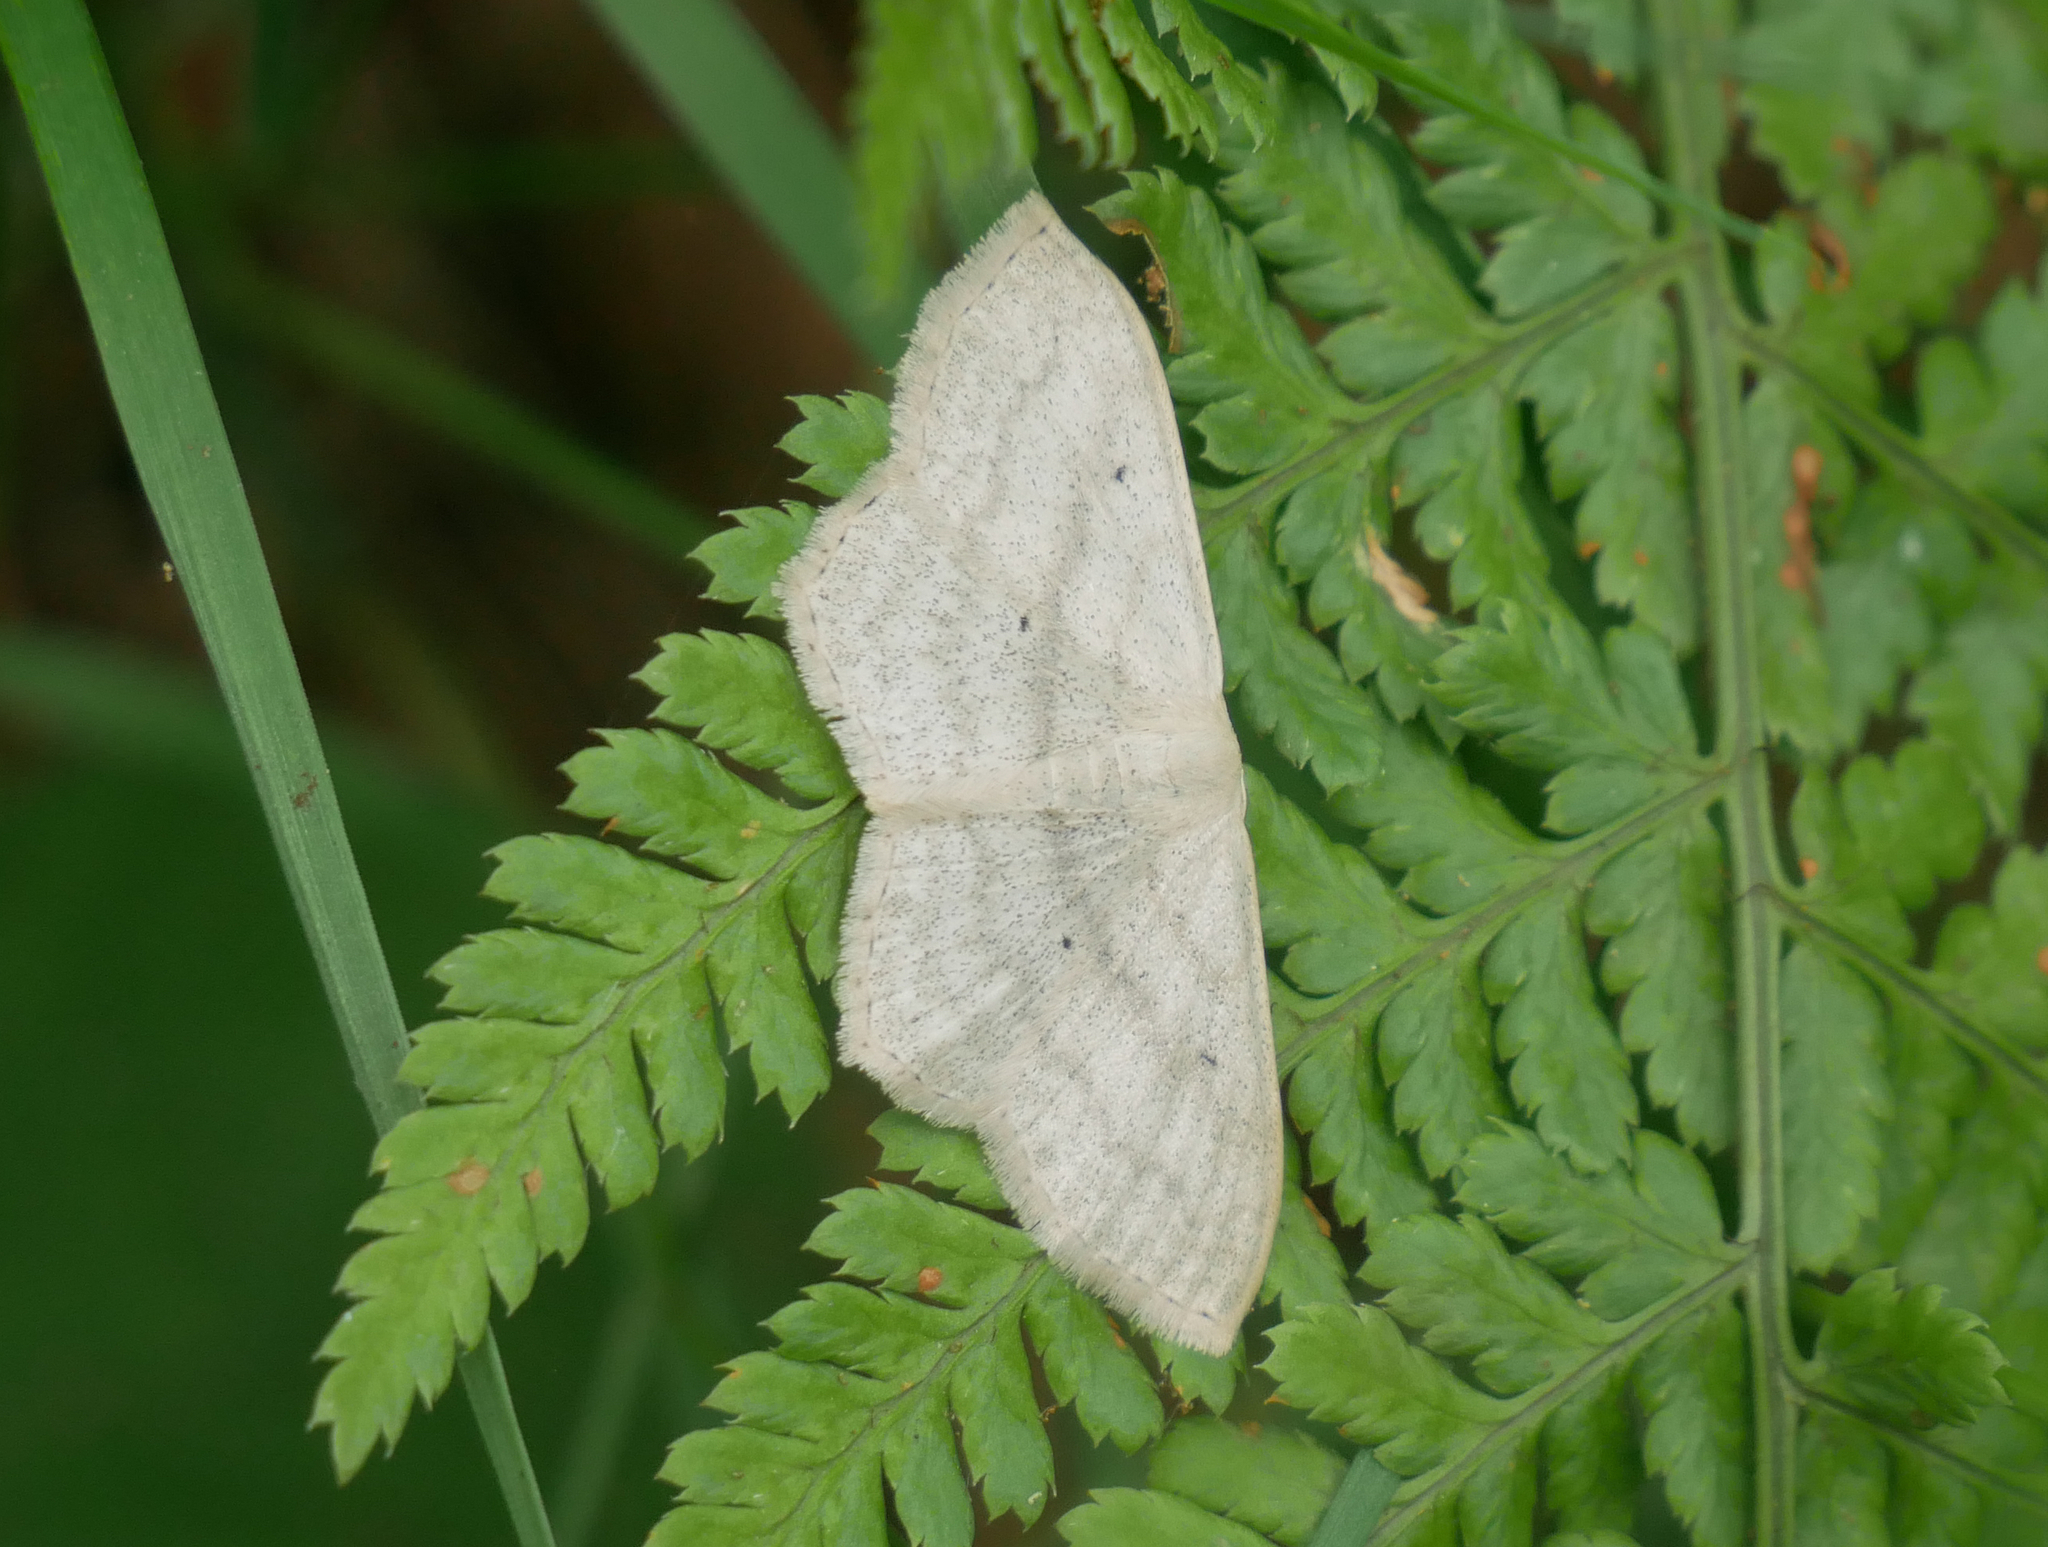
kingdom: Animalia
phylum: Arthropoda
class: Insecta
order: Lepidoptera
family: Geometridae
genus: Scopula
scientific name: Scopula nigropunctata
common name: Sub-angled wave
